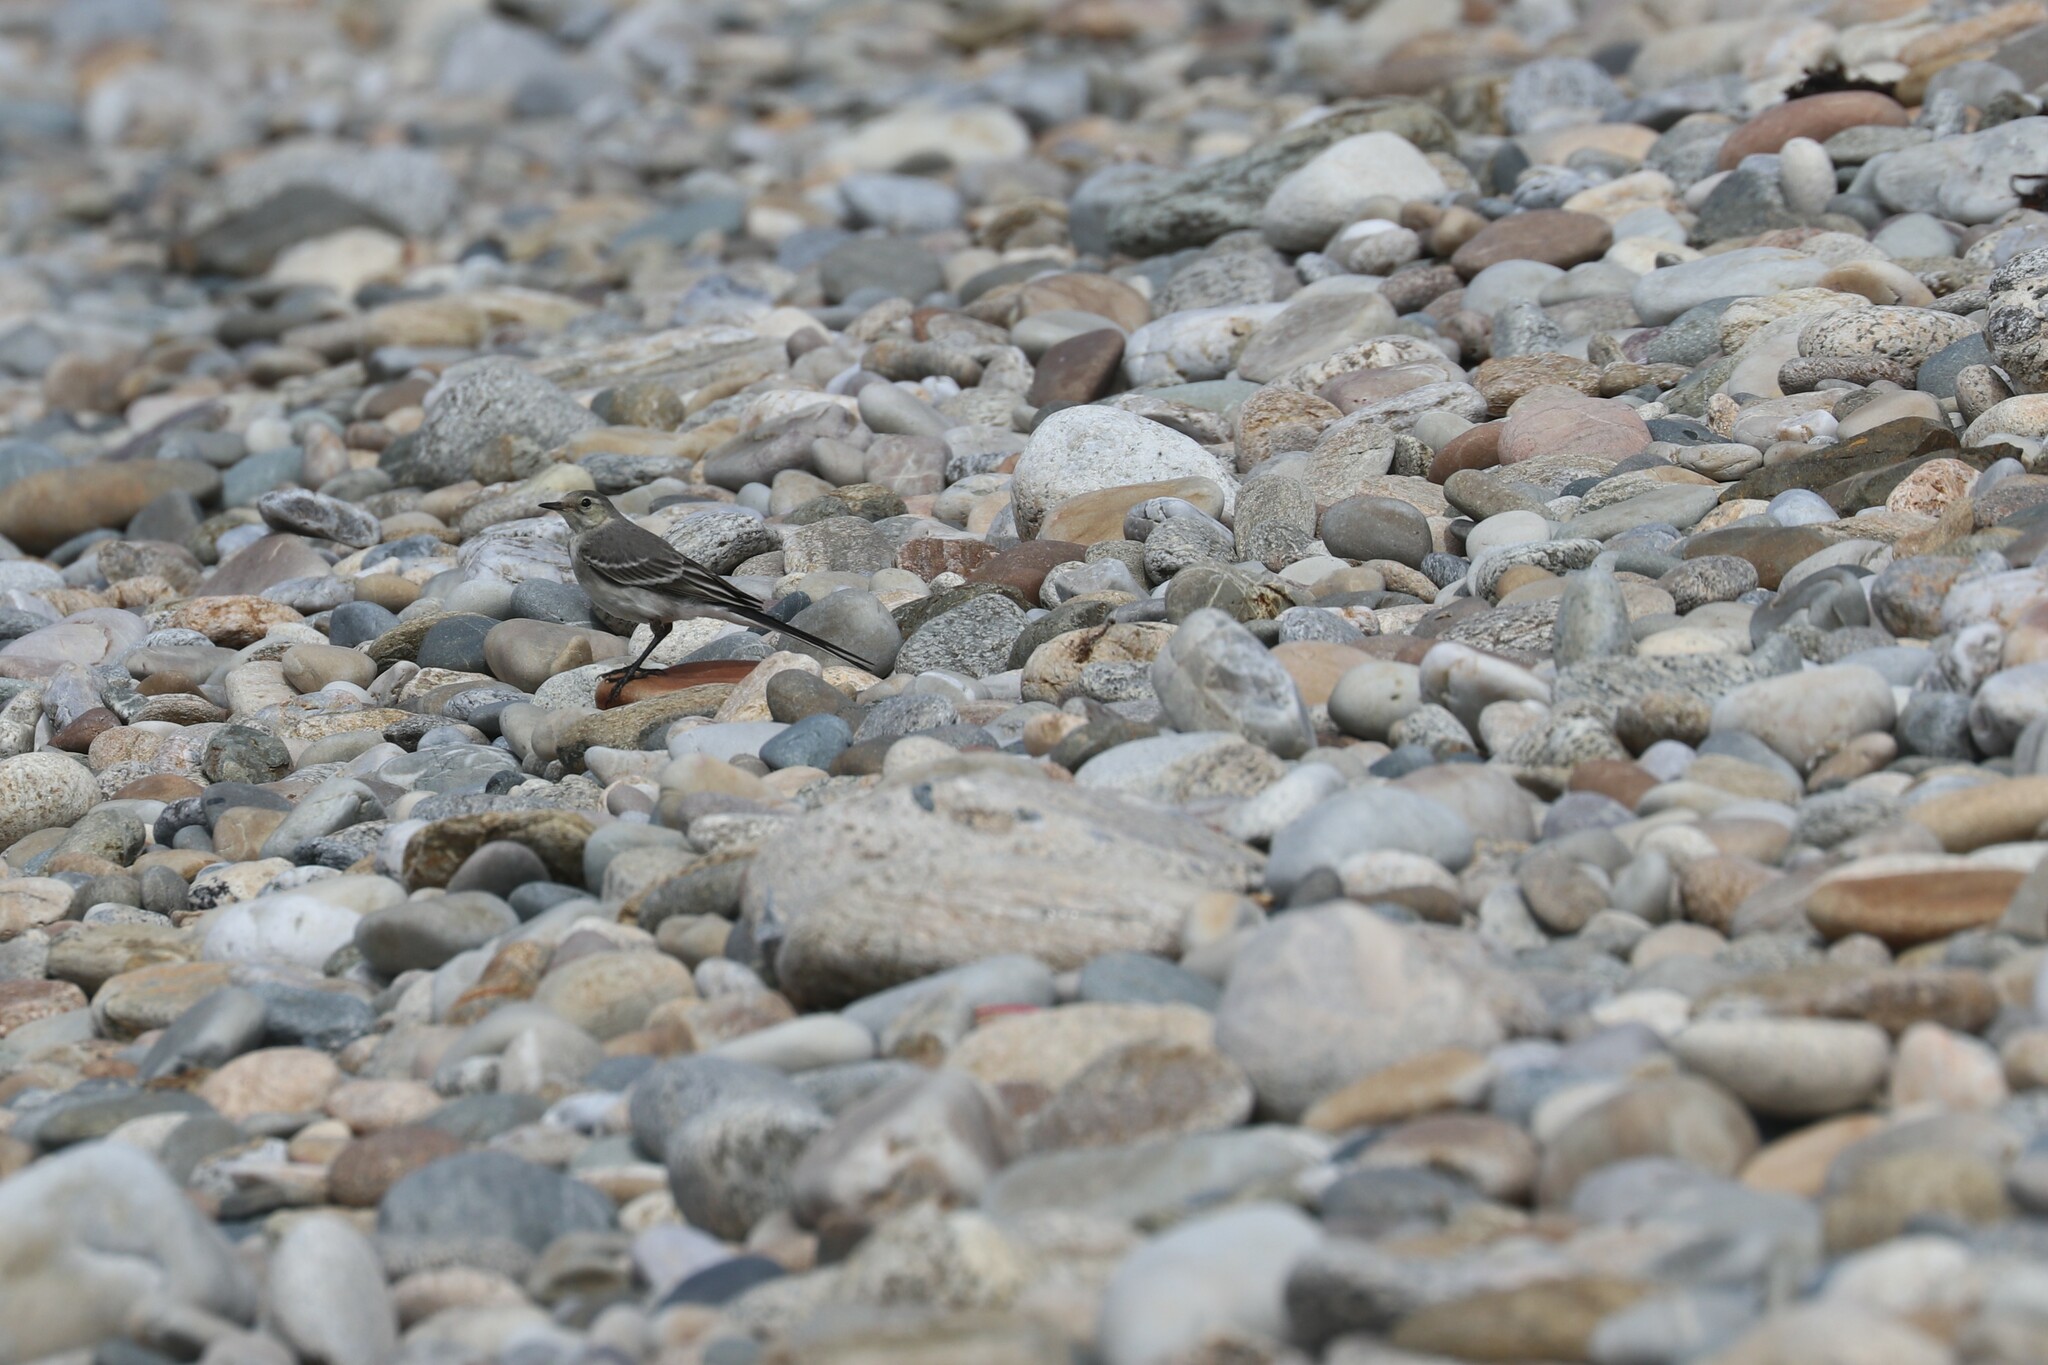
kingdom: Animalia
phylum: Chordata
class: Aves
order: Passeriformes
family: Motacillidae
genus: Motacilla
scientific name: Motacilla alba
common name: White wagtail
